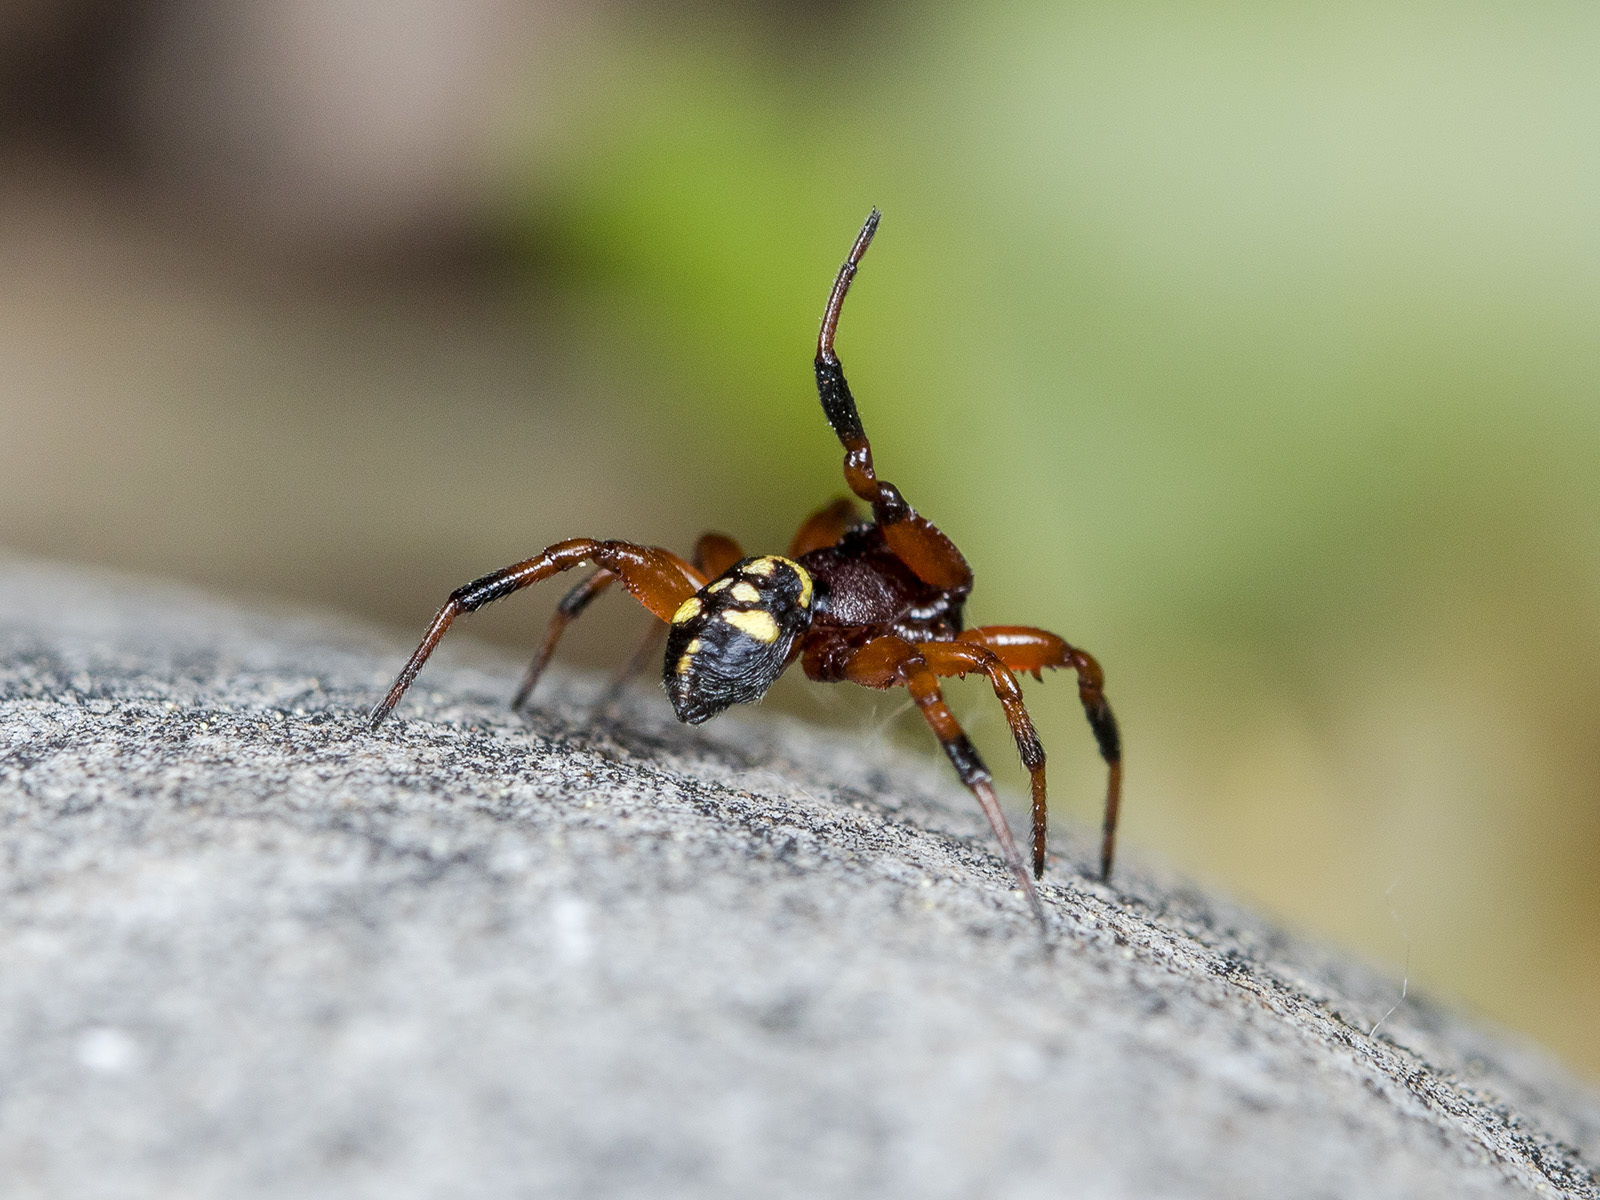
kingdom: Animalia
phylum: Arthropoda
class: Arachnida
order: Araneae
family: Theridiidae
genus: Asagena
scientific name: Asagena phalerata
